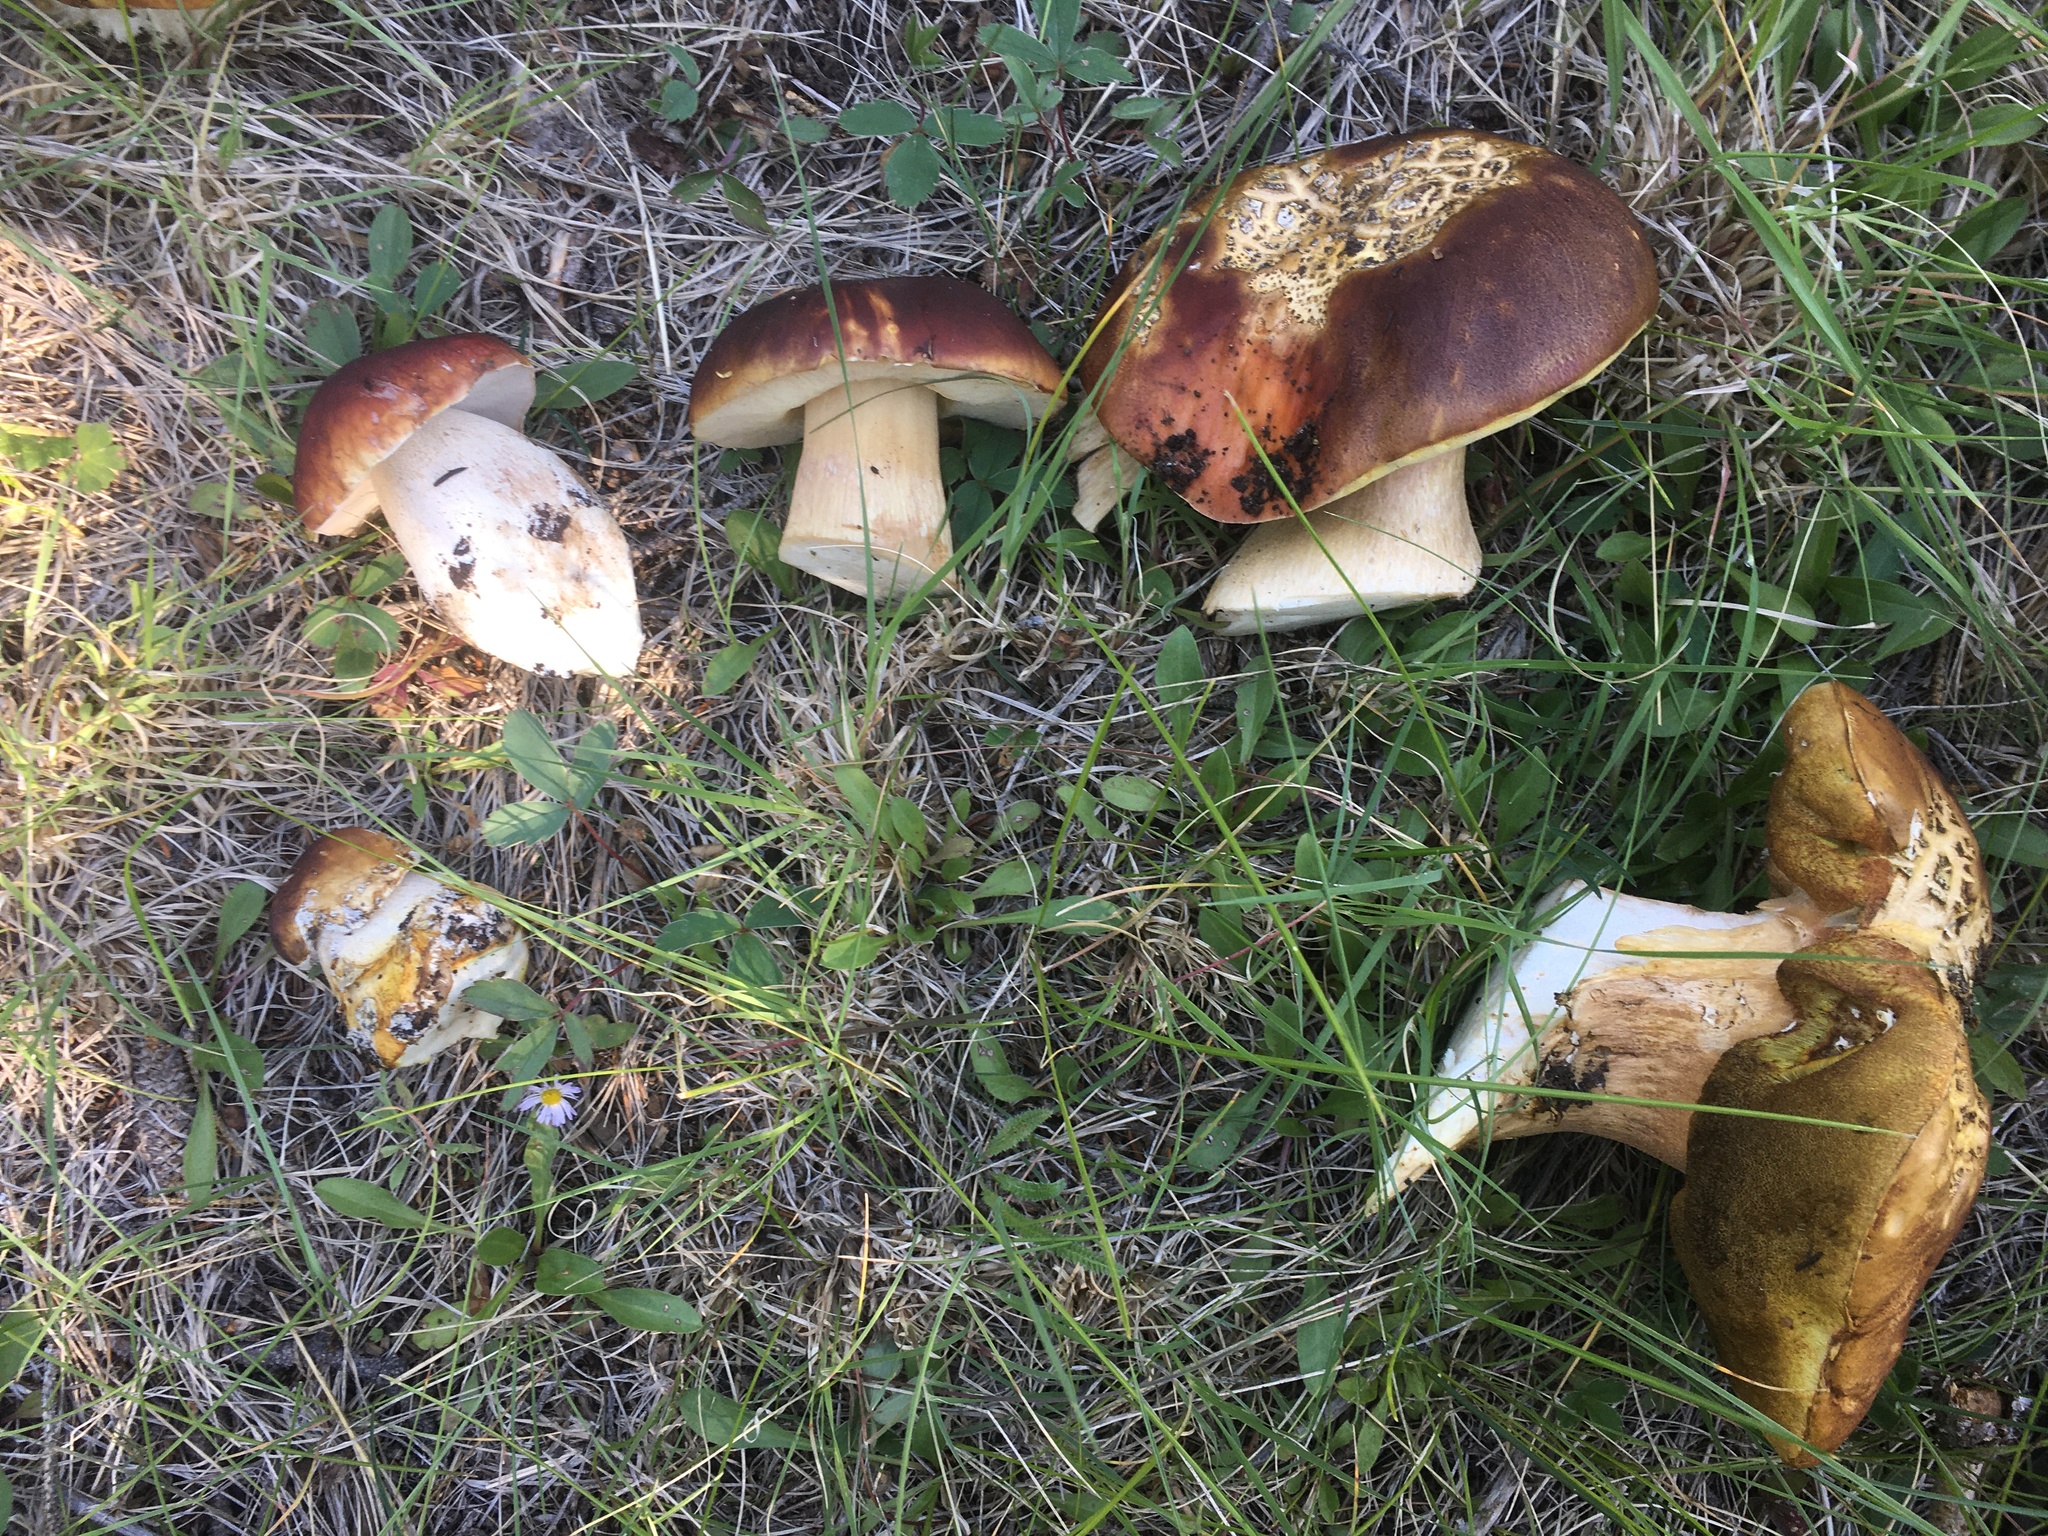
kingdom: Fungi
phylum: Basidiomycota
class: Agaricomycetes
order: Boletales
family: Boletaceae
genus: Boletus
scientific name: Boletus rubriceps
